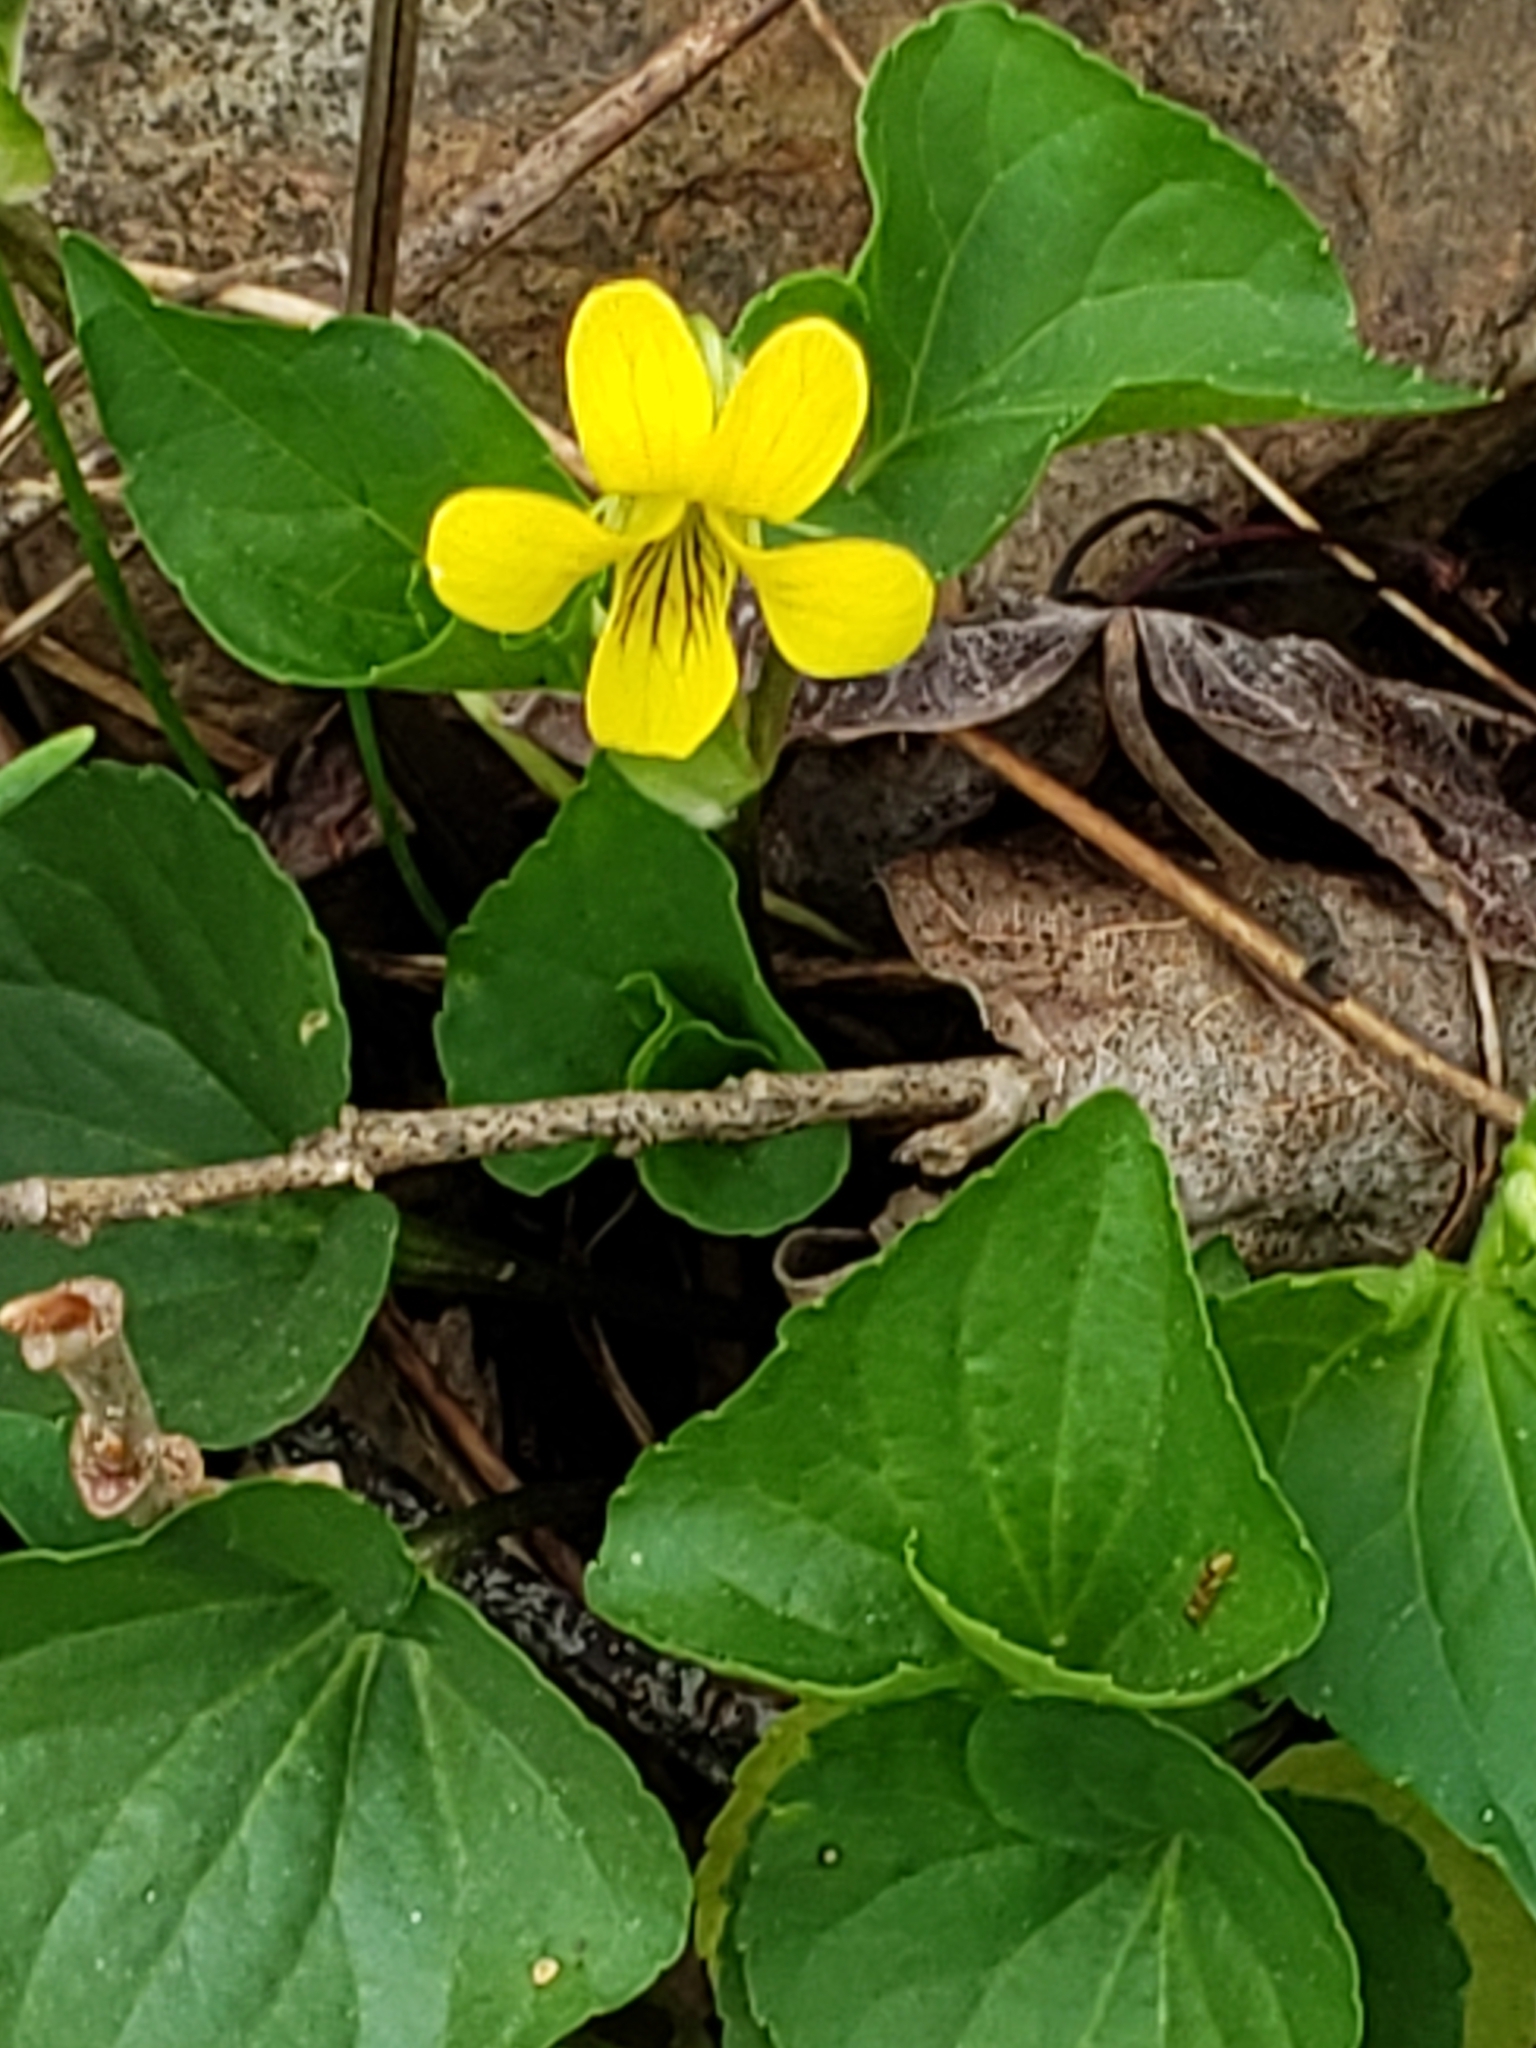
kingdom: Plantae
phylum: Tracheophyta
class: Magnoliopsida
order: Malpighiales
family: Violaceae
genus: Viola
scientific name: Viola eriocarpa
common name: Smooth yellow violet
